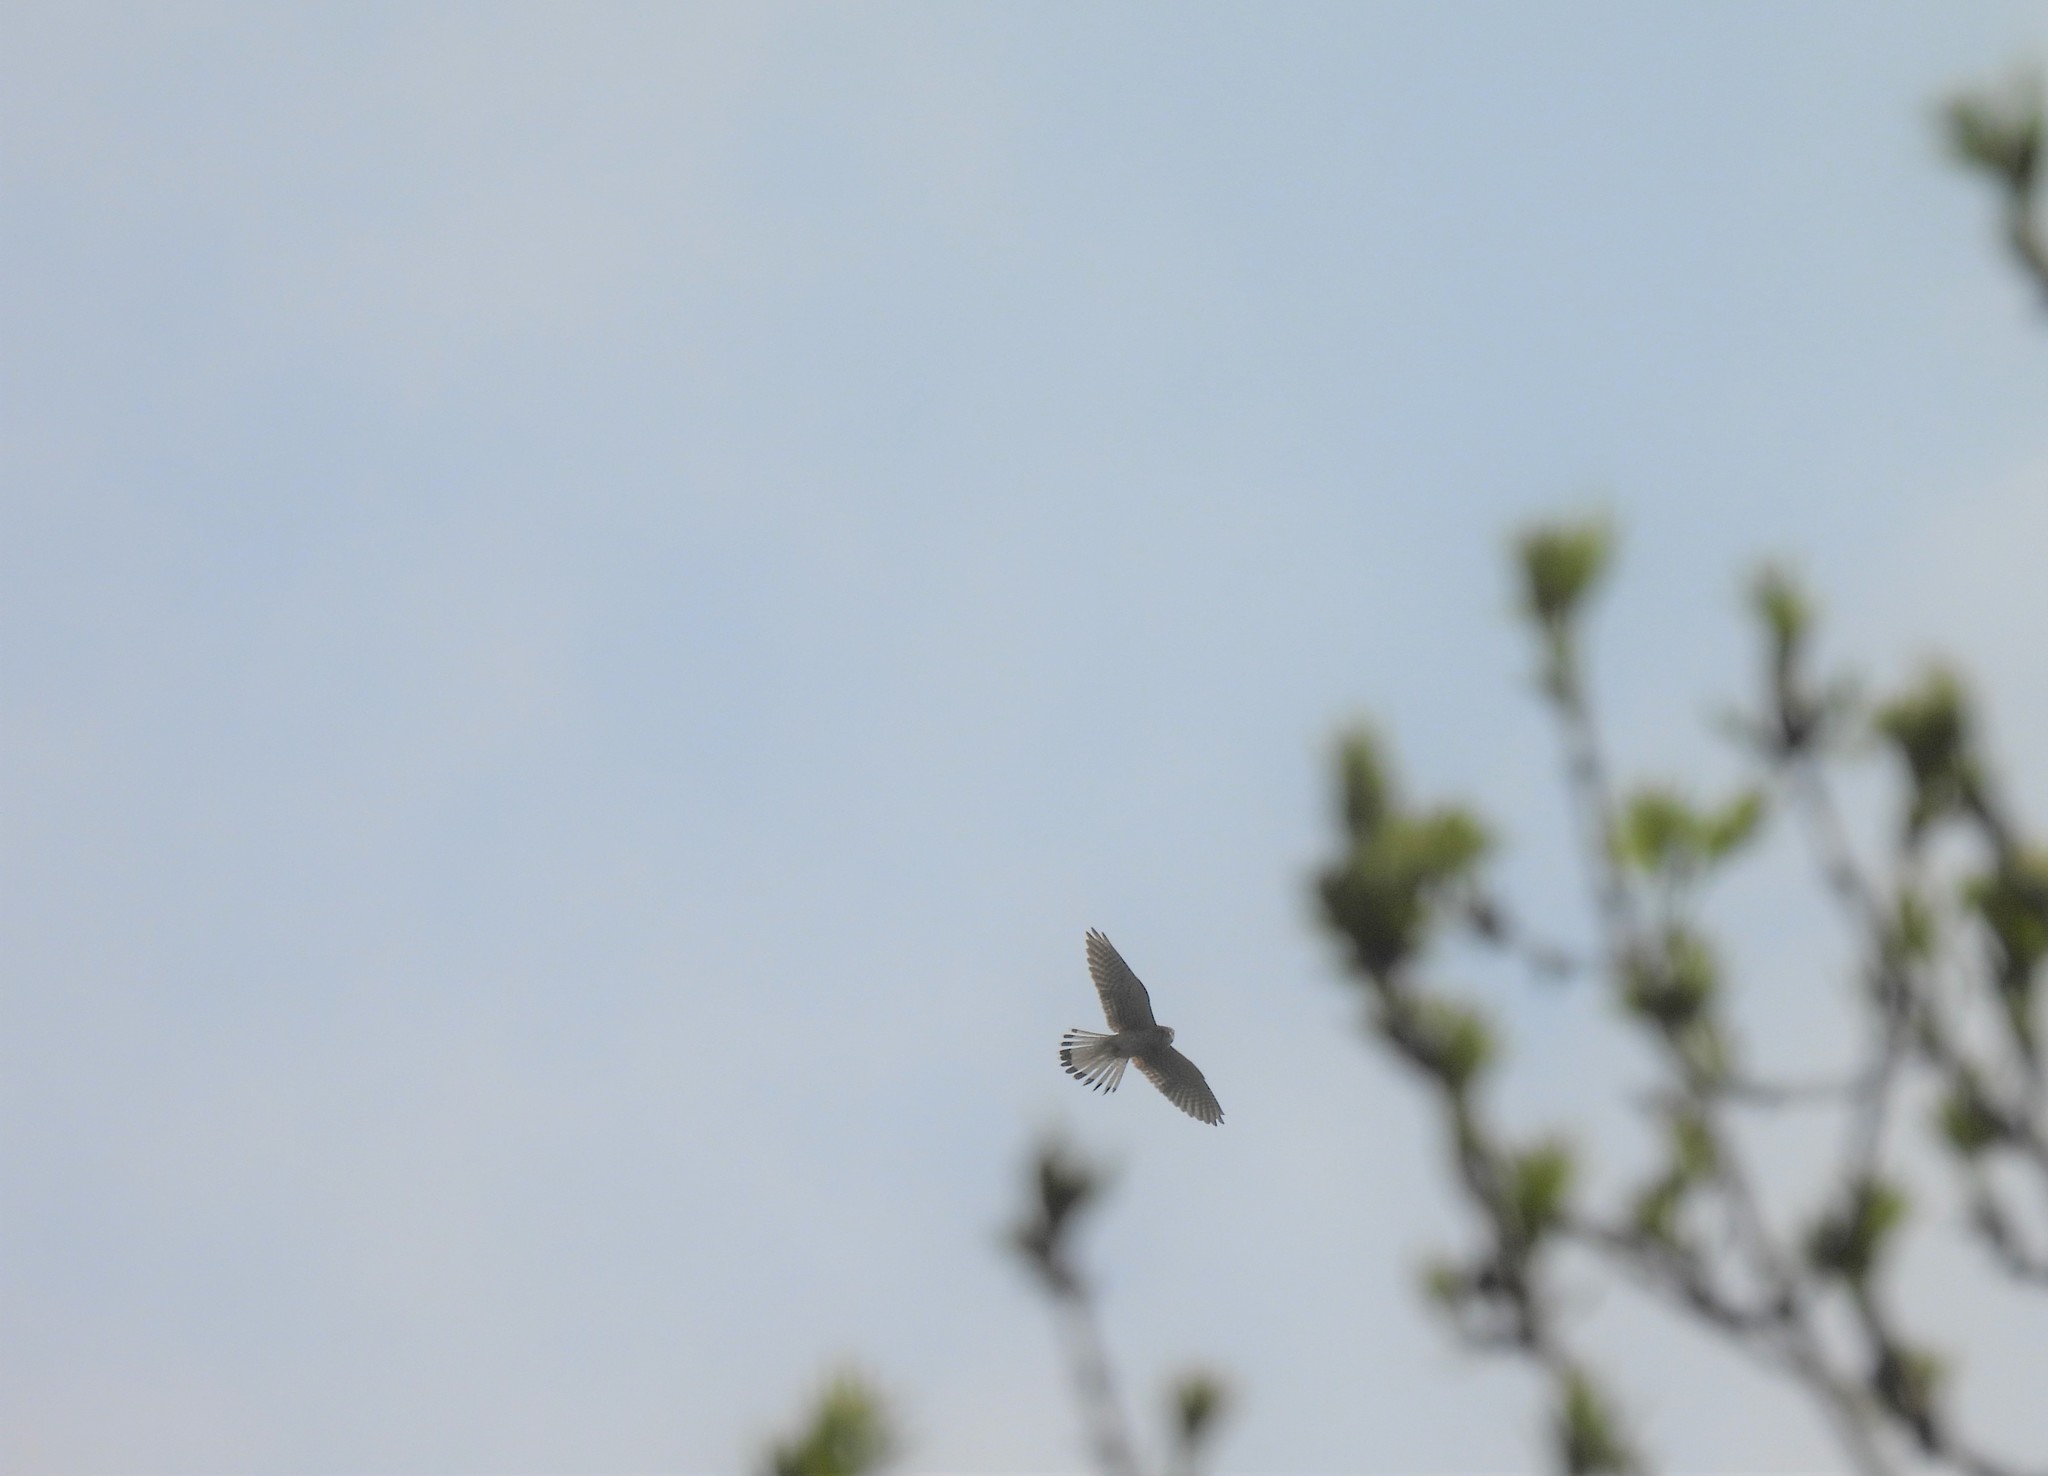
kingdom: Animalia
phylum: Chordata
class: Aves
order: Falconiformes
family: Falconidae
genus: Falco
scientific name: Falco tinnunculus
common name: Common kestrel
